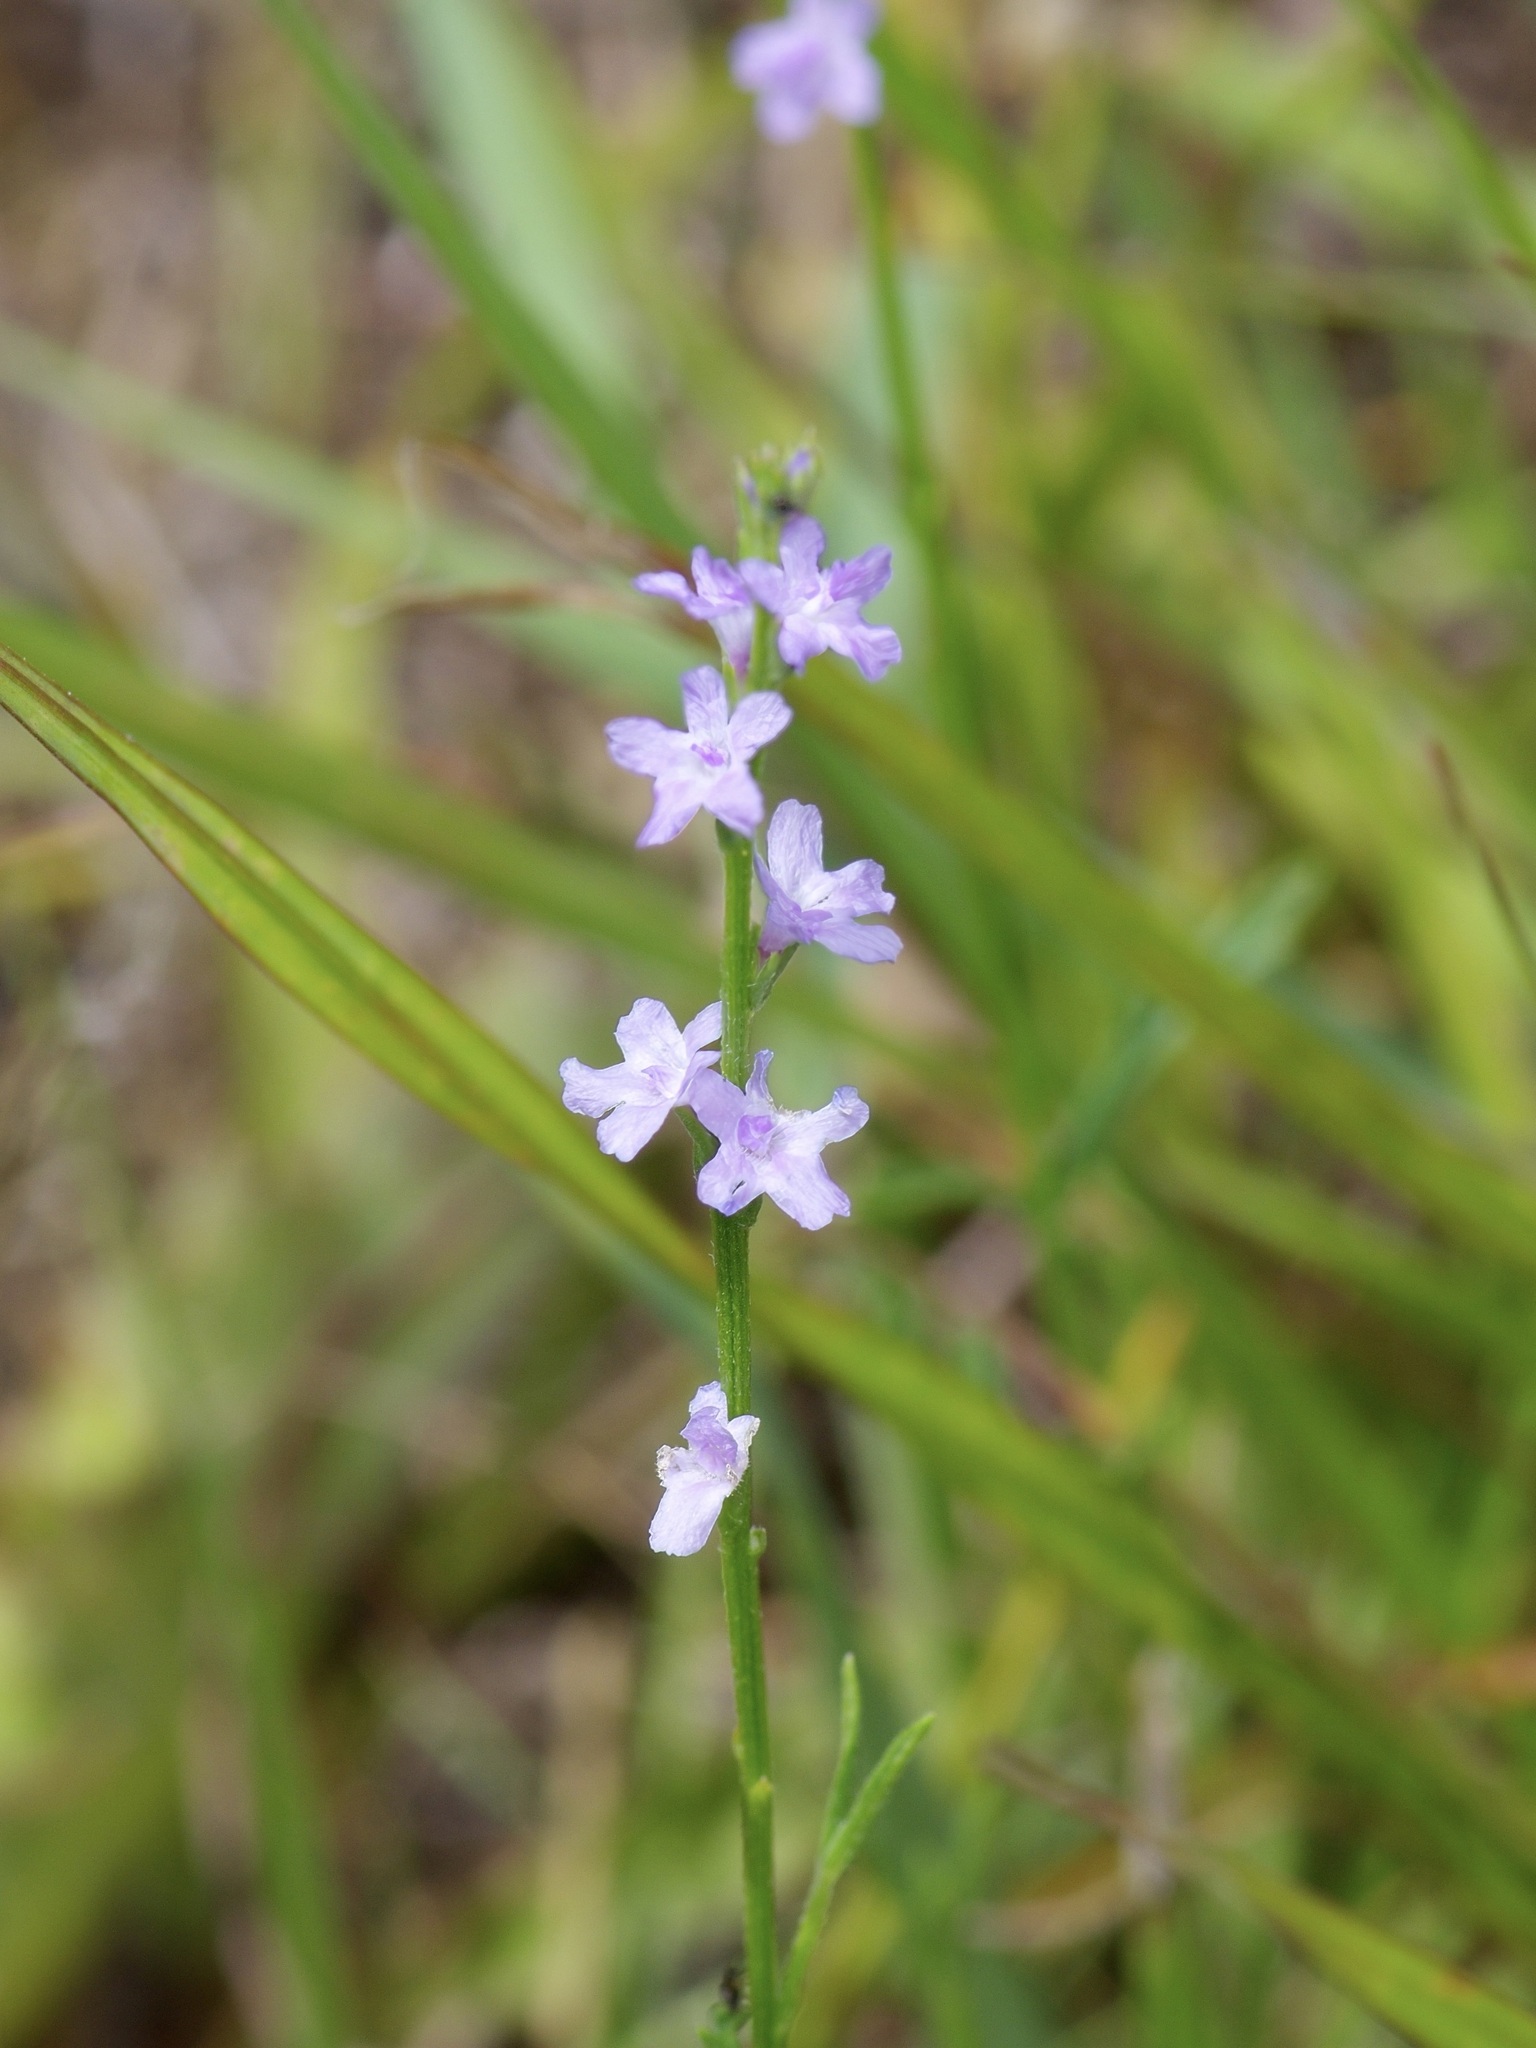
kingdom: Plantae
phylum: Tracheophyta
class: Magnoliopsida
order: Lamiales
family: Verbenaceae
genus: Verbena
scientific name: Verbena halei
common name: Texas vervain
